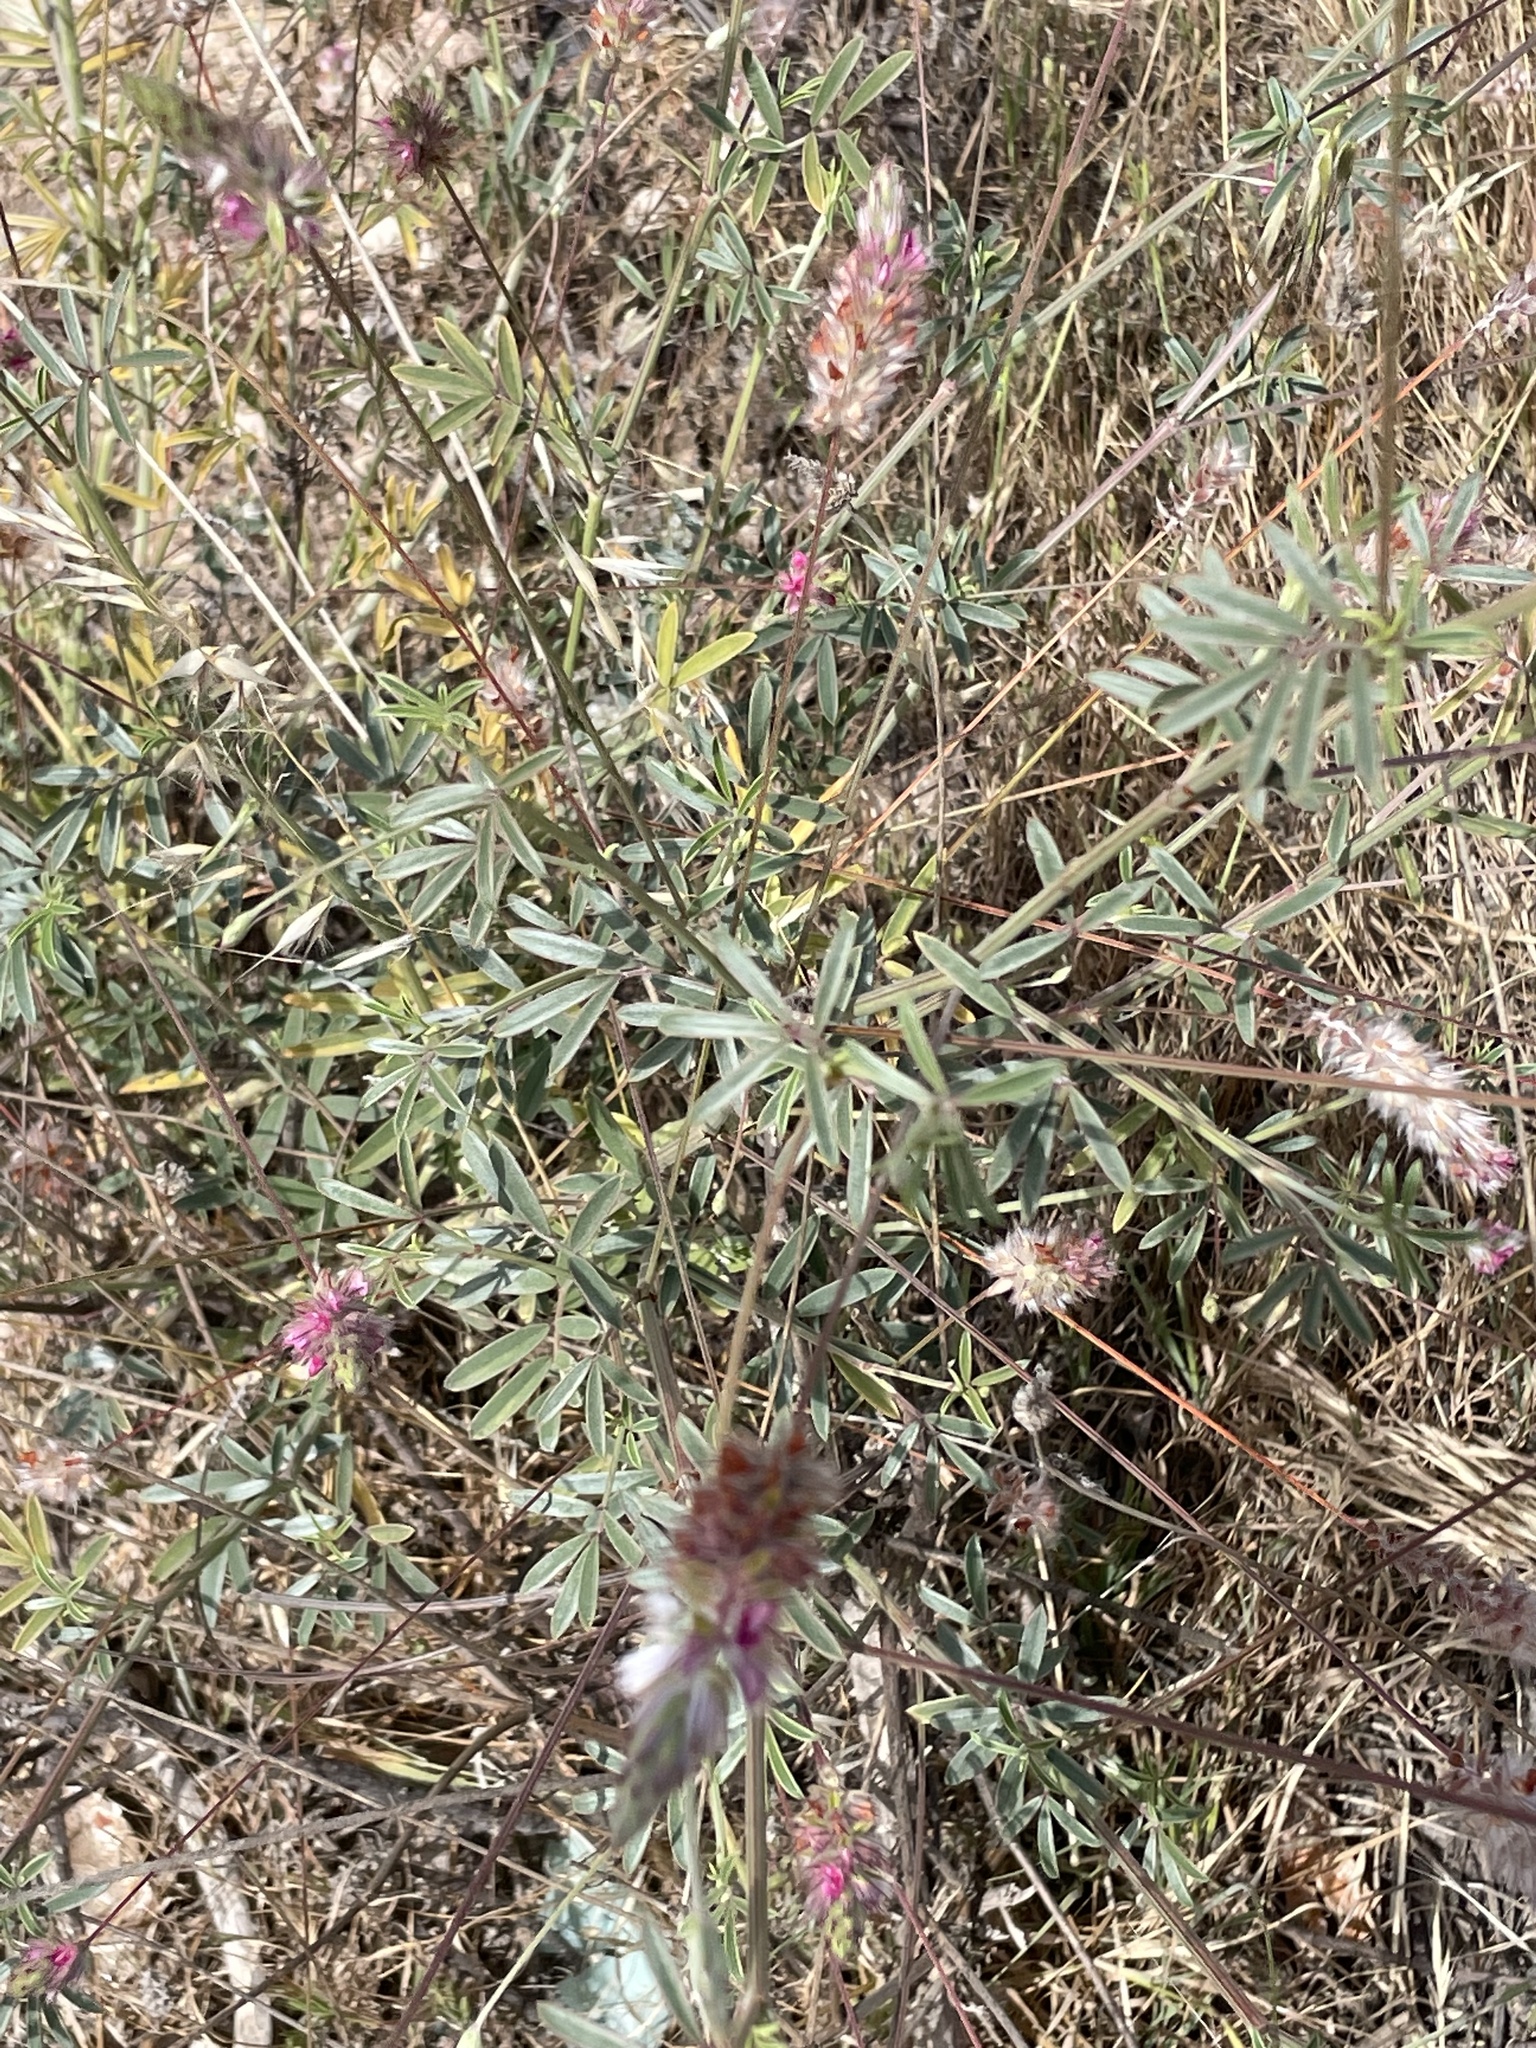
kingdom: Plantae
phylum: Tracheophyta
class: Magnoliopsida
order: Fabales
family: Fabaceae
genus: Ebenus
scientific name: Ebenus pinnata
